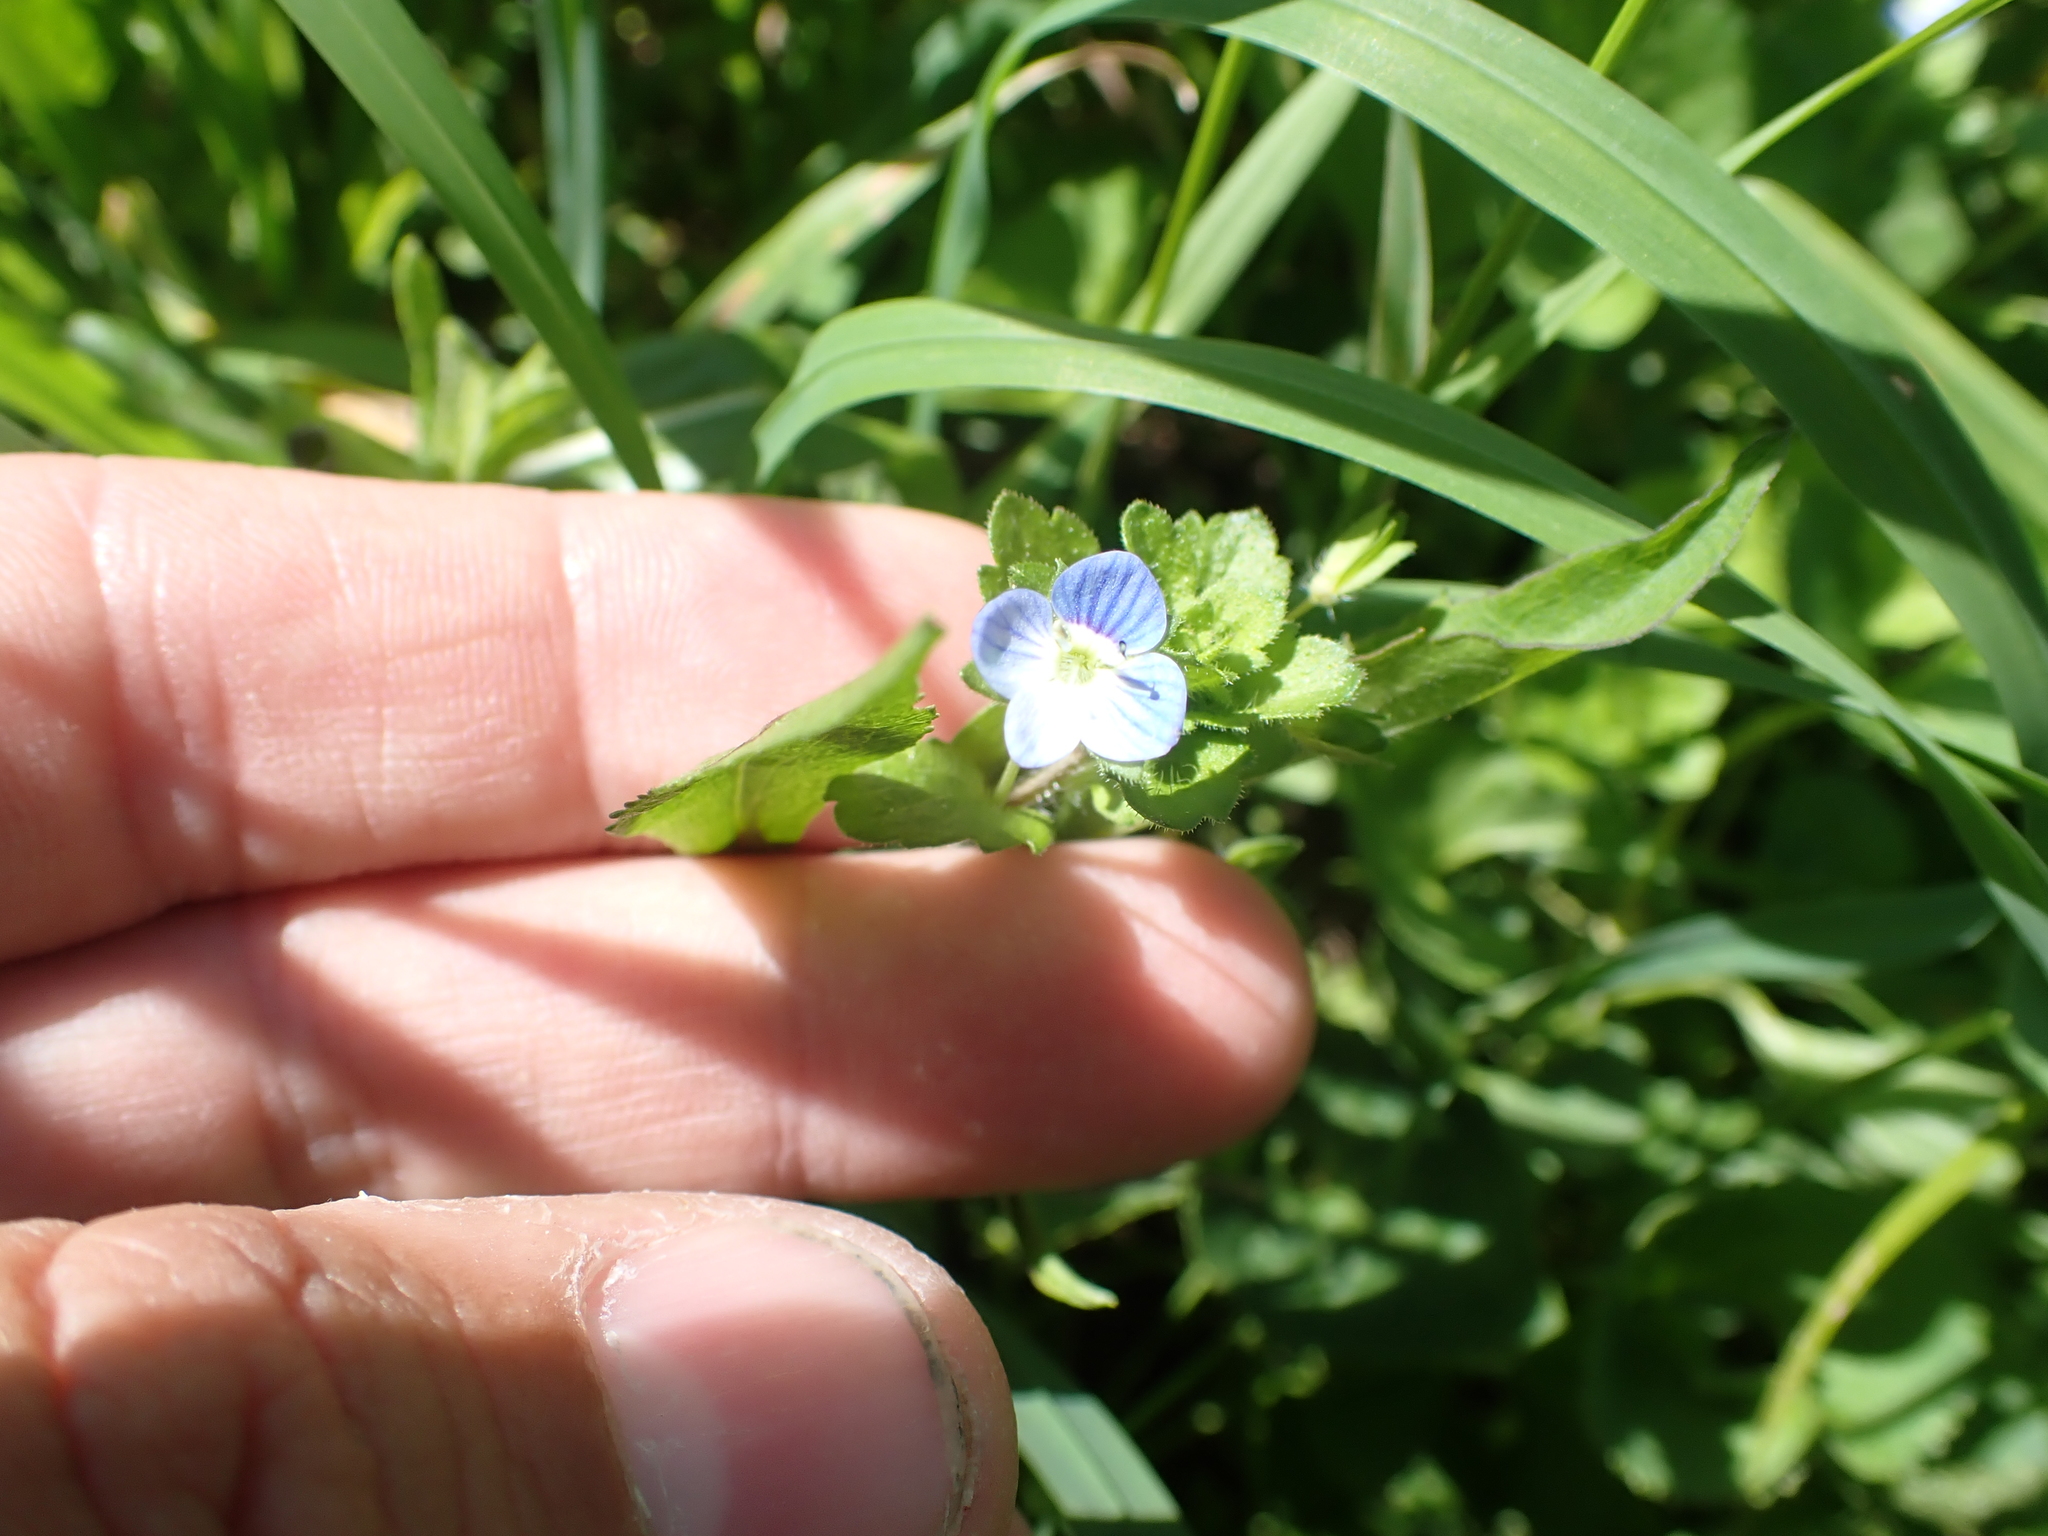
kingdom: Plantae
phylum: Tracheophyta
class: Magnoliopsida
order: Lamiales
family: Plantaginaceae
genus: Veronica
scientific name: Veronica persica
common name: Common field-speedwell
